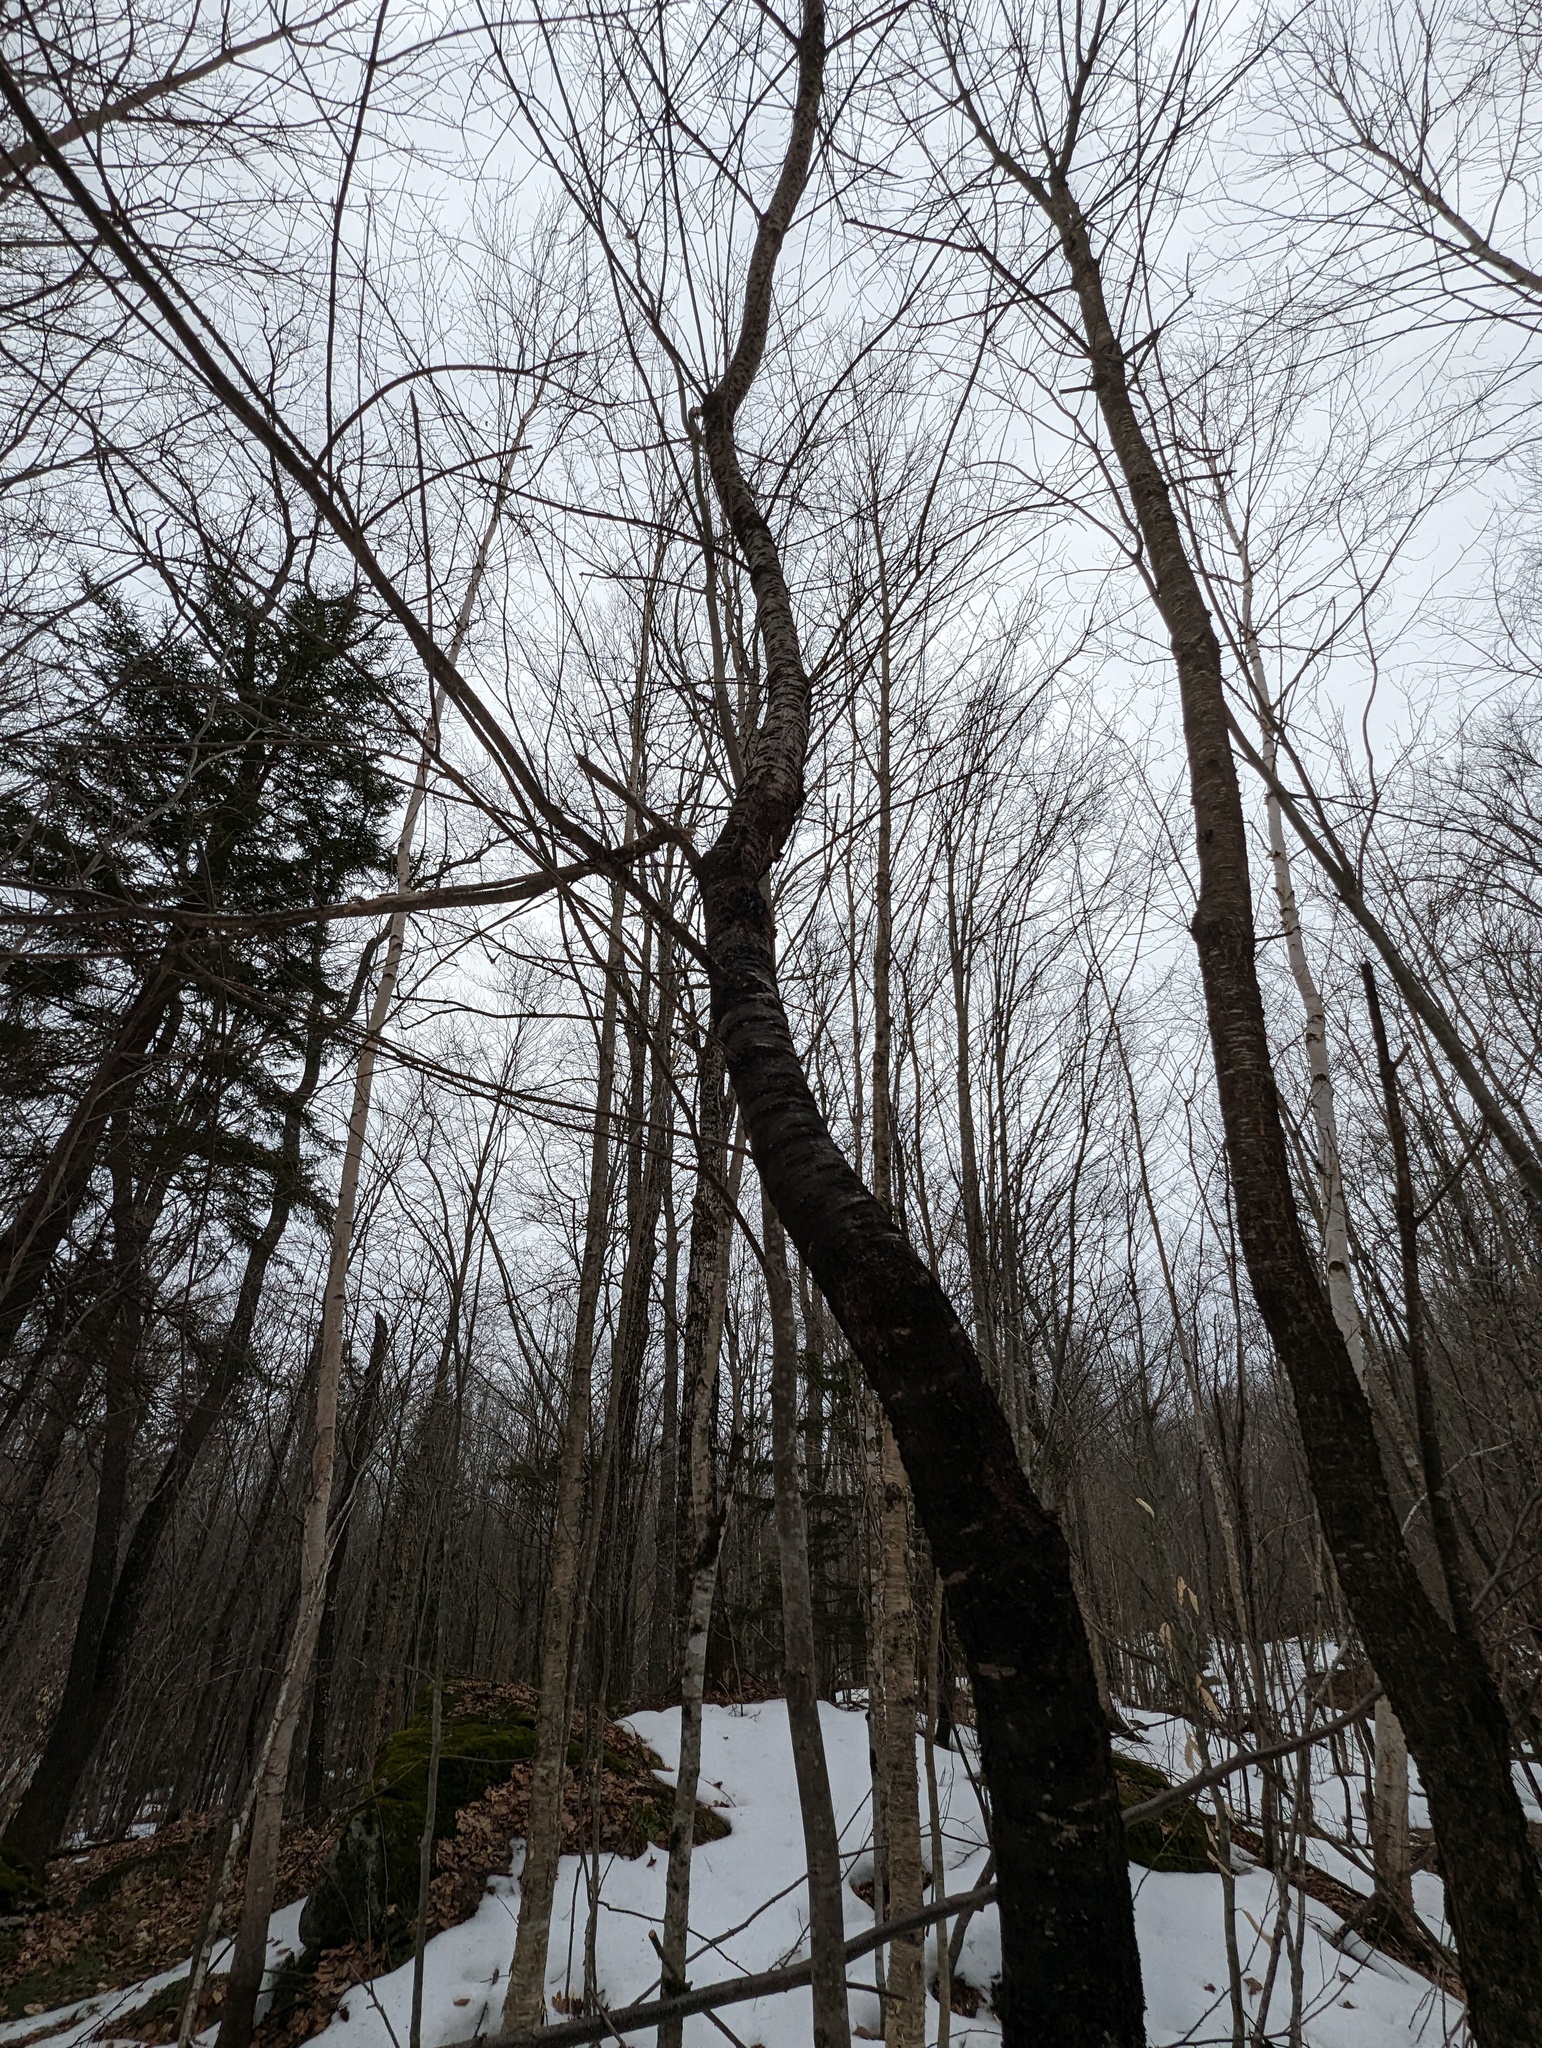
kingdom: Plantae
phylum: Tracheophyta
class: Magnoliopsida
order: Rosales
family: Rosaceae
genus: Prunus
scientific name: Prunus serotina
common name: Black cherry
